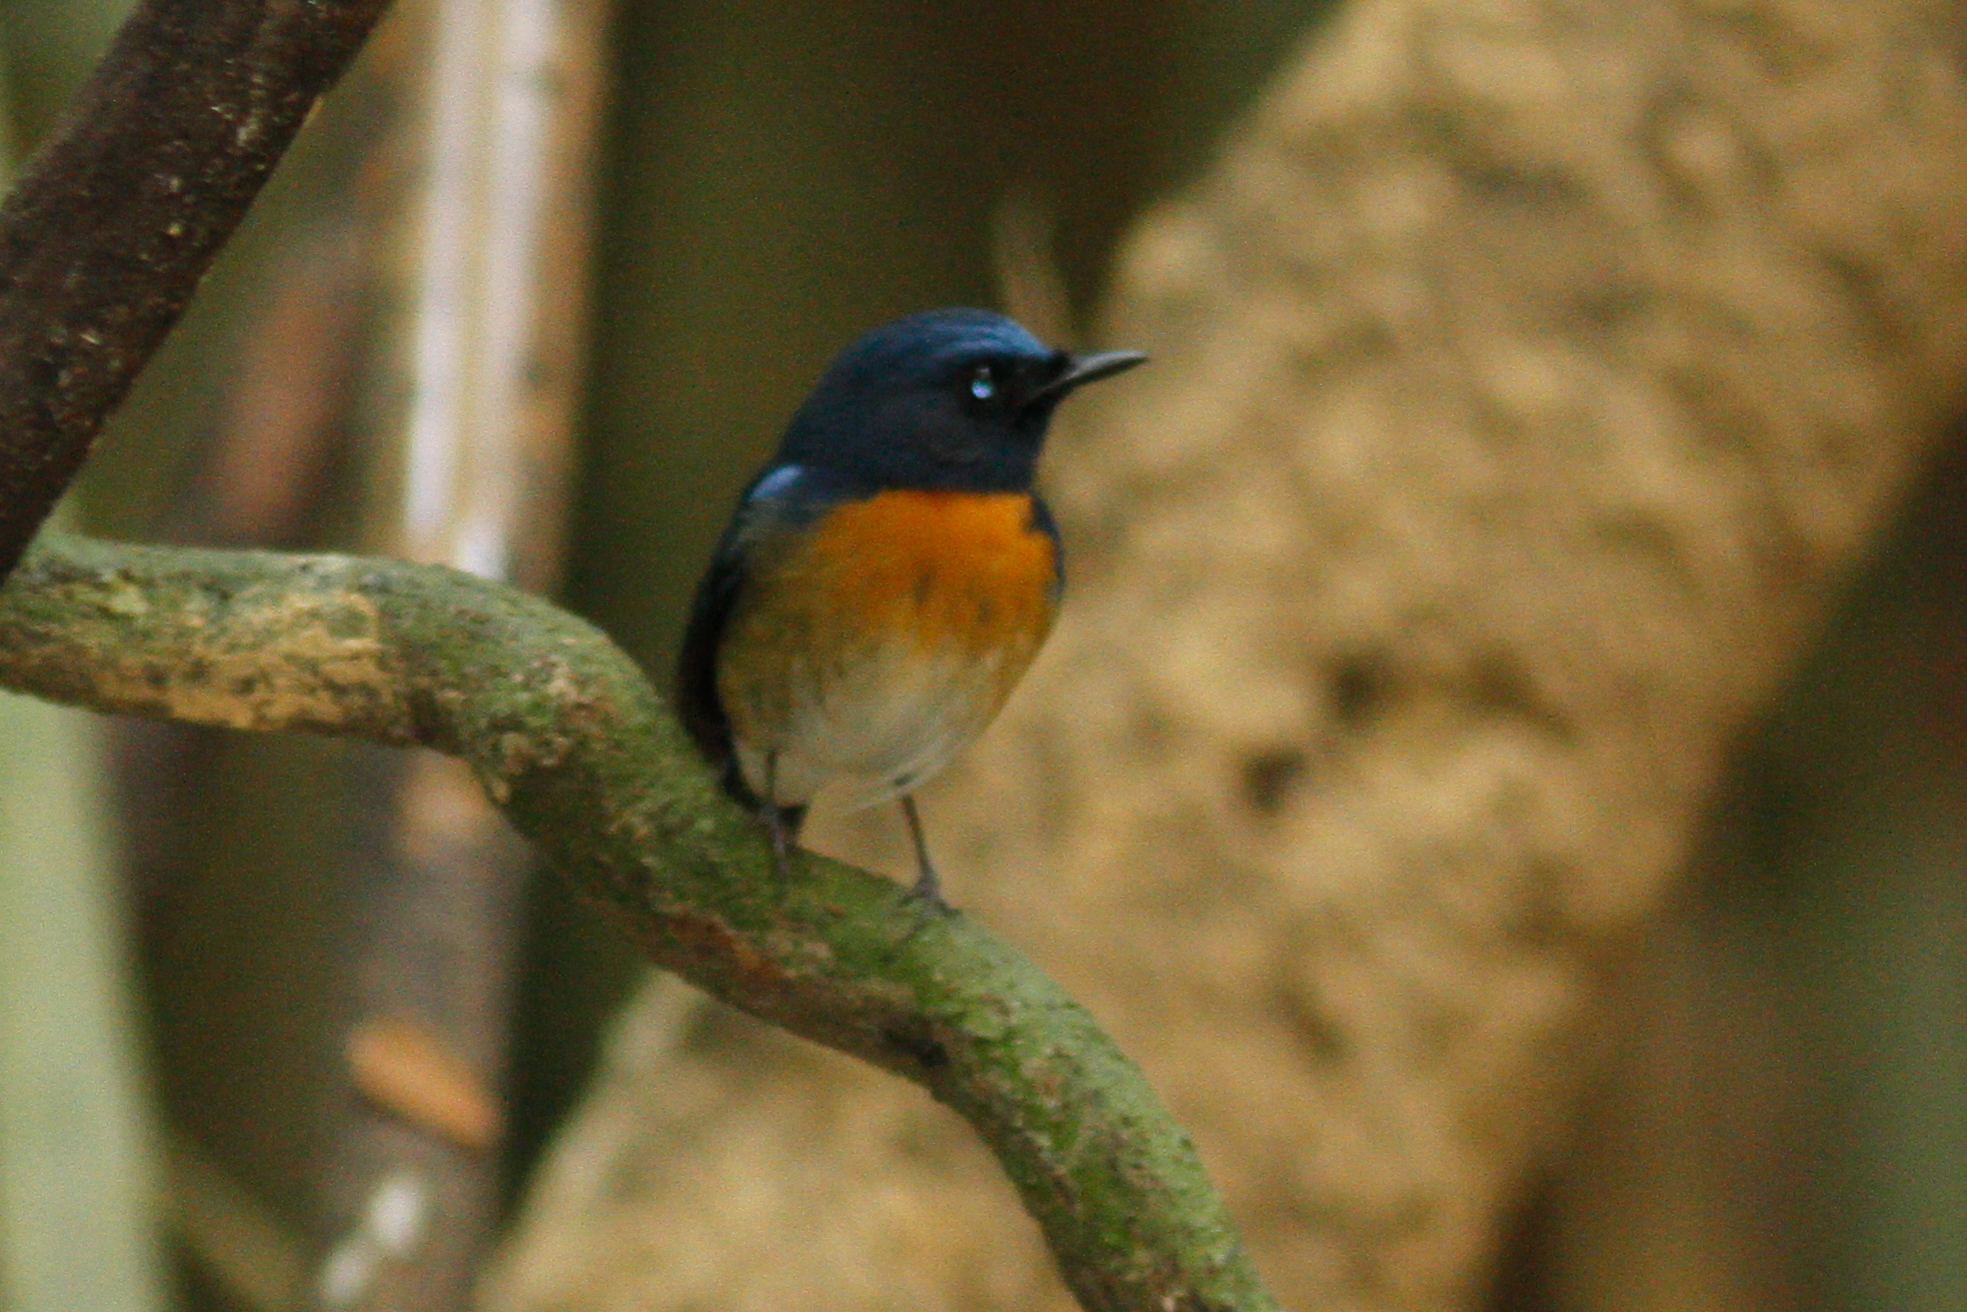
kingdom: Animalia
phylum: Chordata
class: Aves
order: Passeriformes
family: Muscicapidae
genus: Cyornis
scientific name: Cyornis rubeculoides
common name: Blue-throated blue flycatcher
